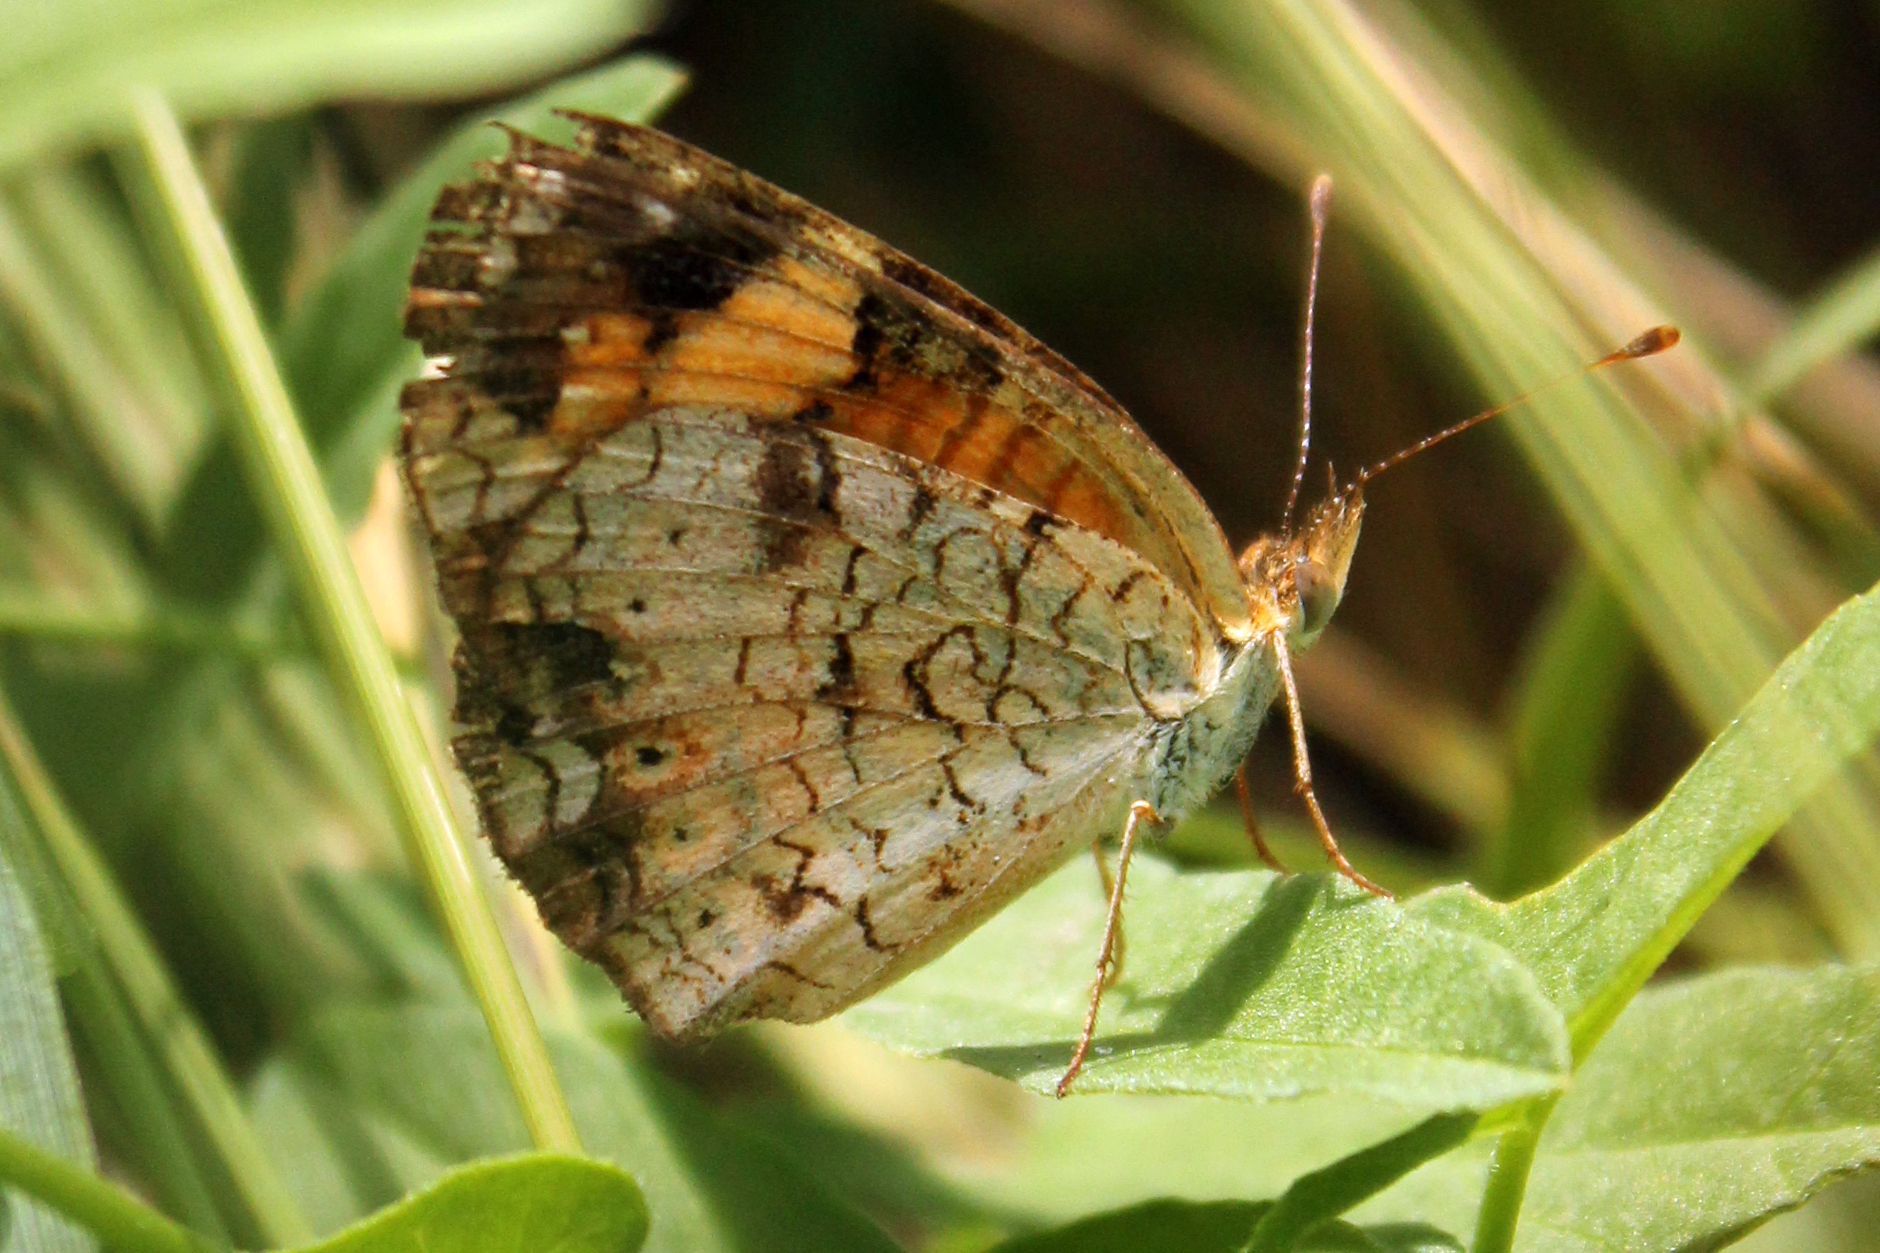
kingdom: Animalia
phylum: Arthropoda
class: Insecta
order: Lepidoptera
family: Nymphalidae
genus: Phyciodes
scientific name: Phyciodes tharos
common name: Pearl crescent
